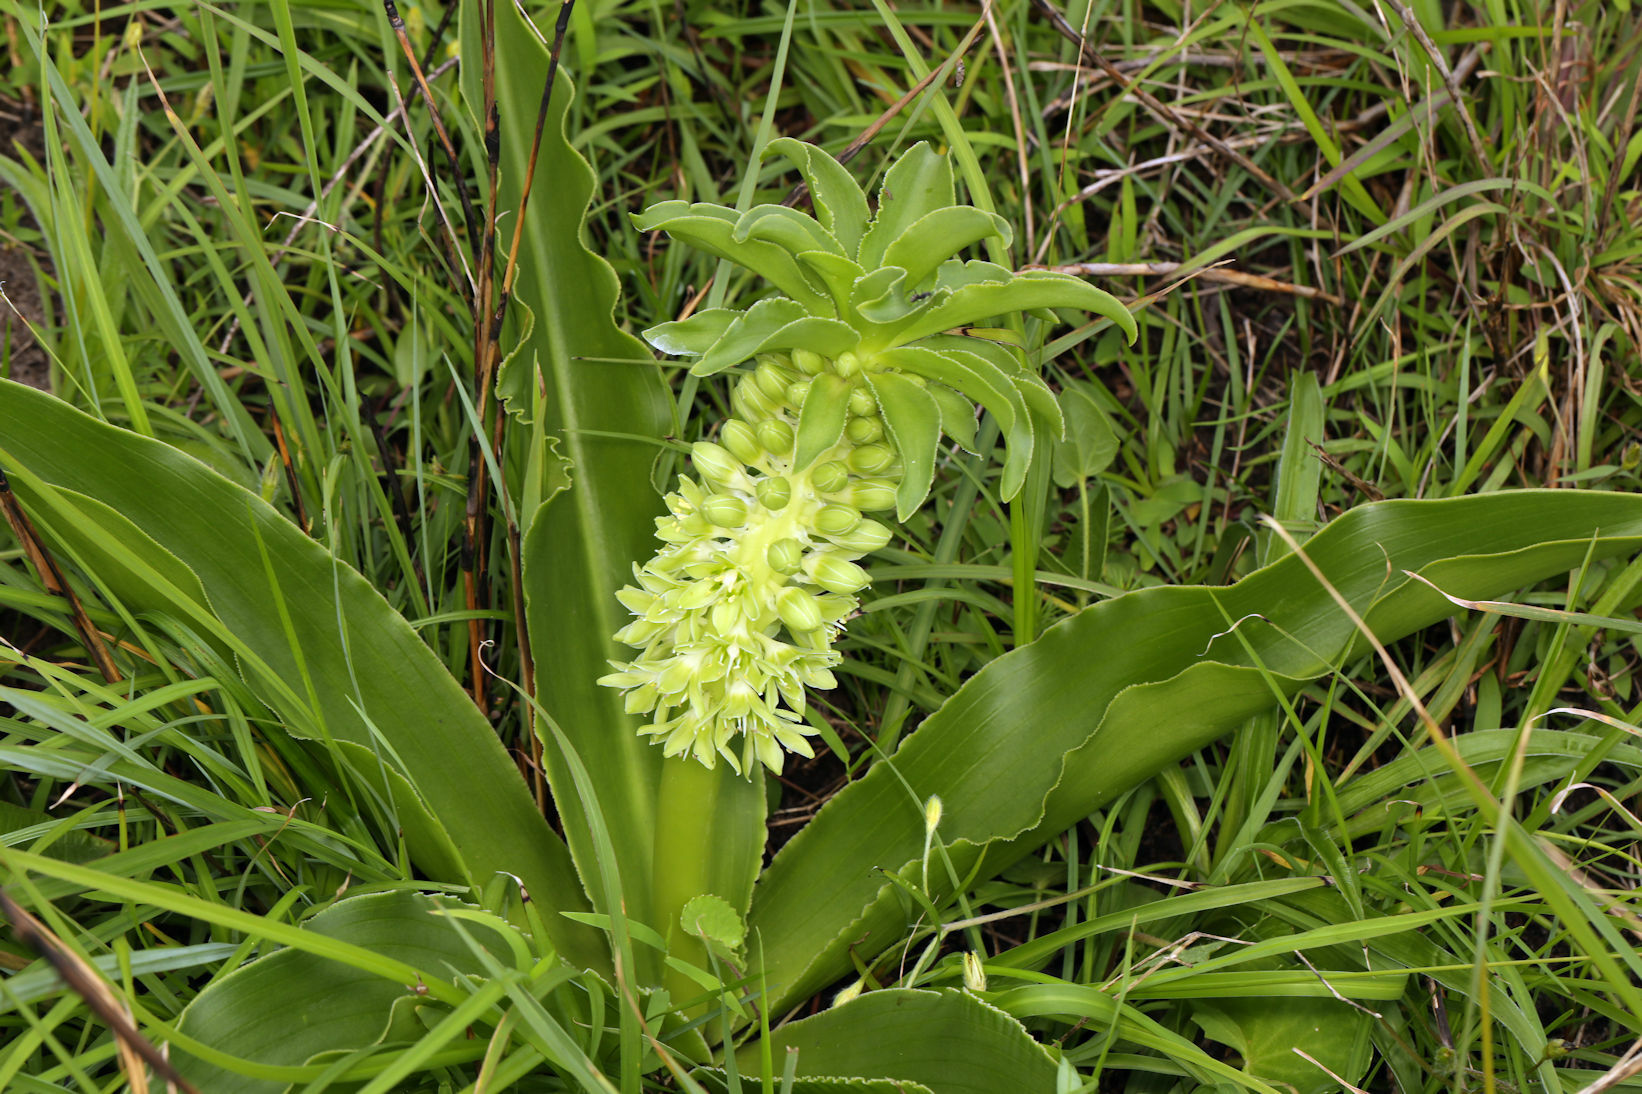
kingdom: Plantae
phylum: Tracheophyta
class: Liliopsida
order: Asparagales
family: Asparagaceae
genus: Eucomis
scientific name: Eucomis autumnalis
